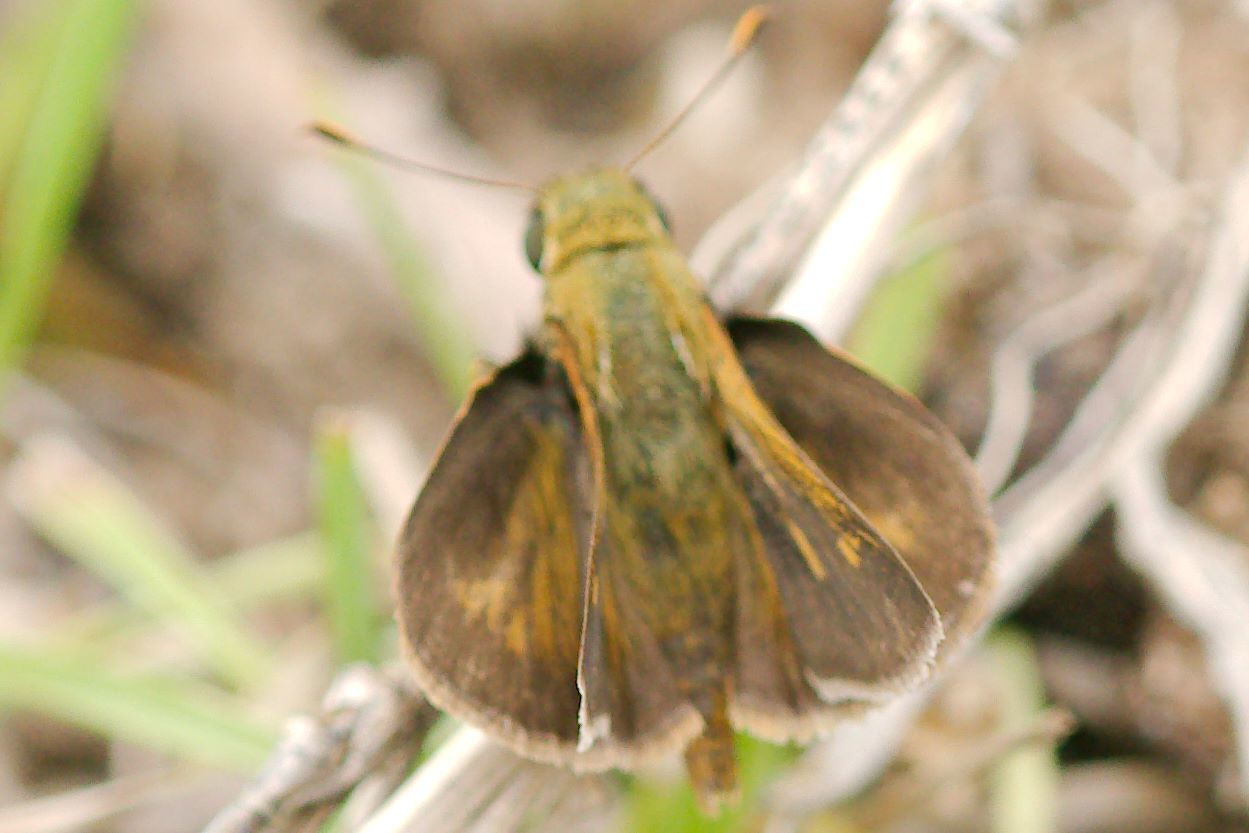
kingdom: Animalia
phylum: Arthropoda
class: Insecta
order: Lepidoptera
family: Hesperiidae
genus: Polites
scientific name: Polites otho
